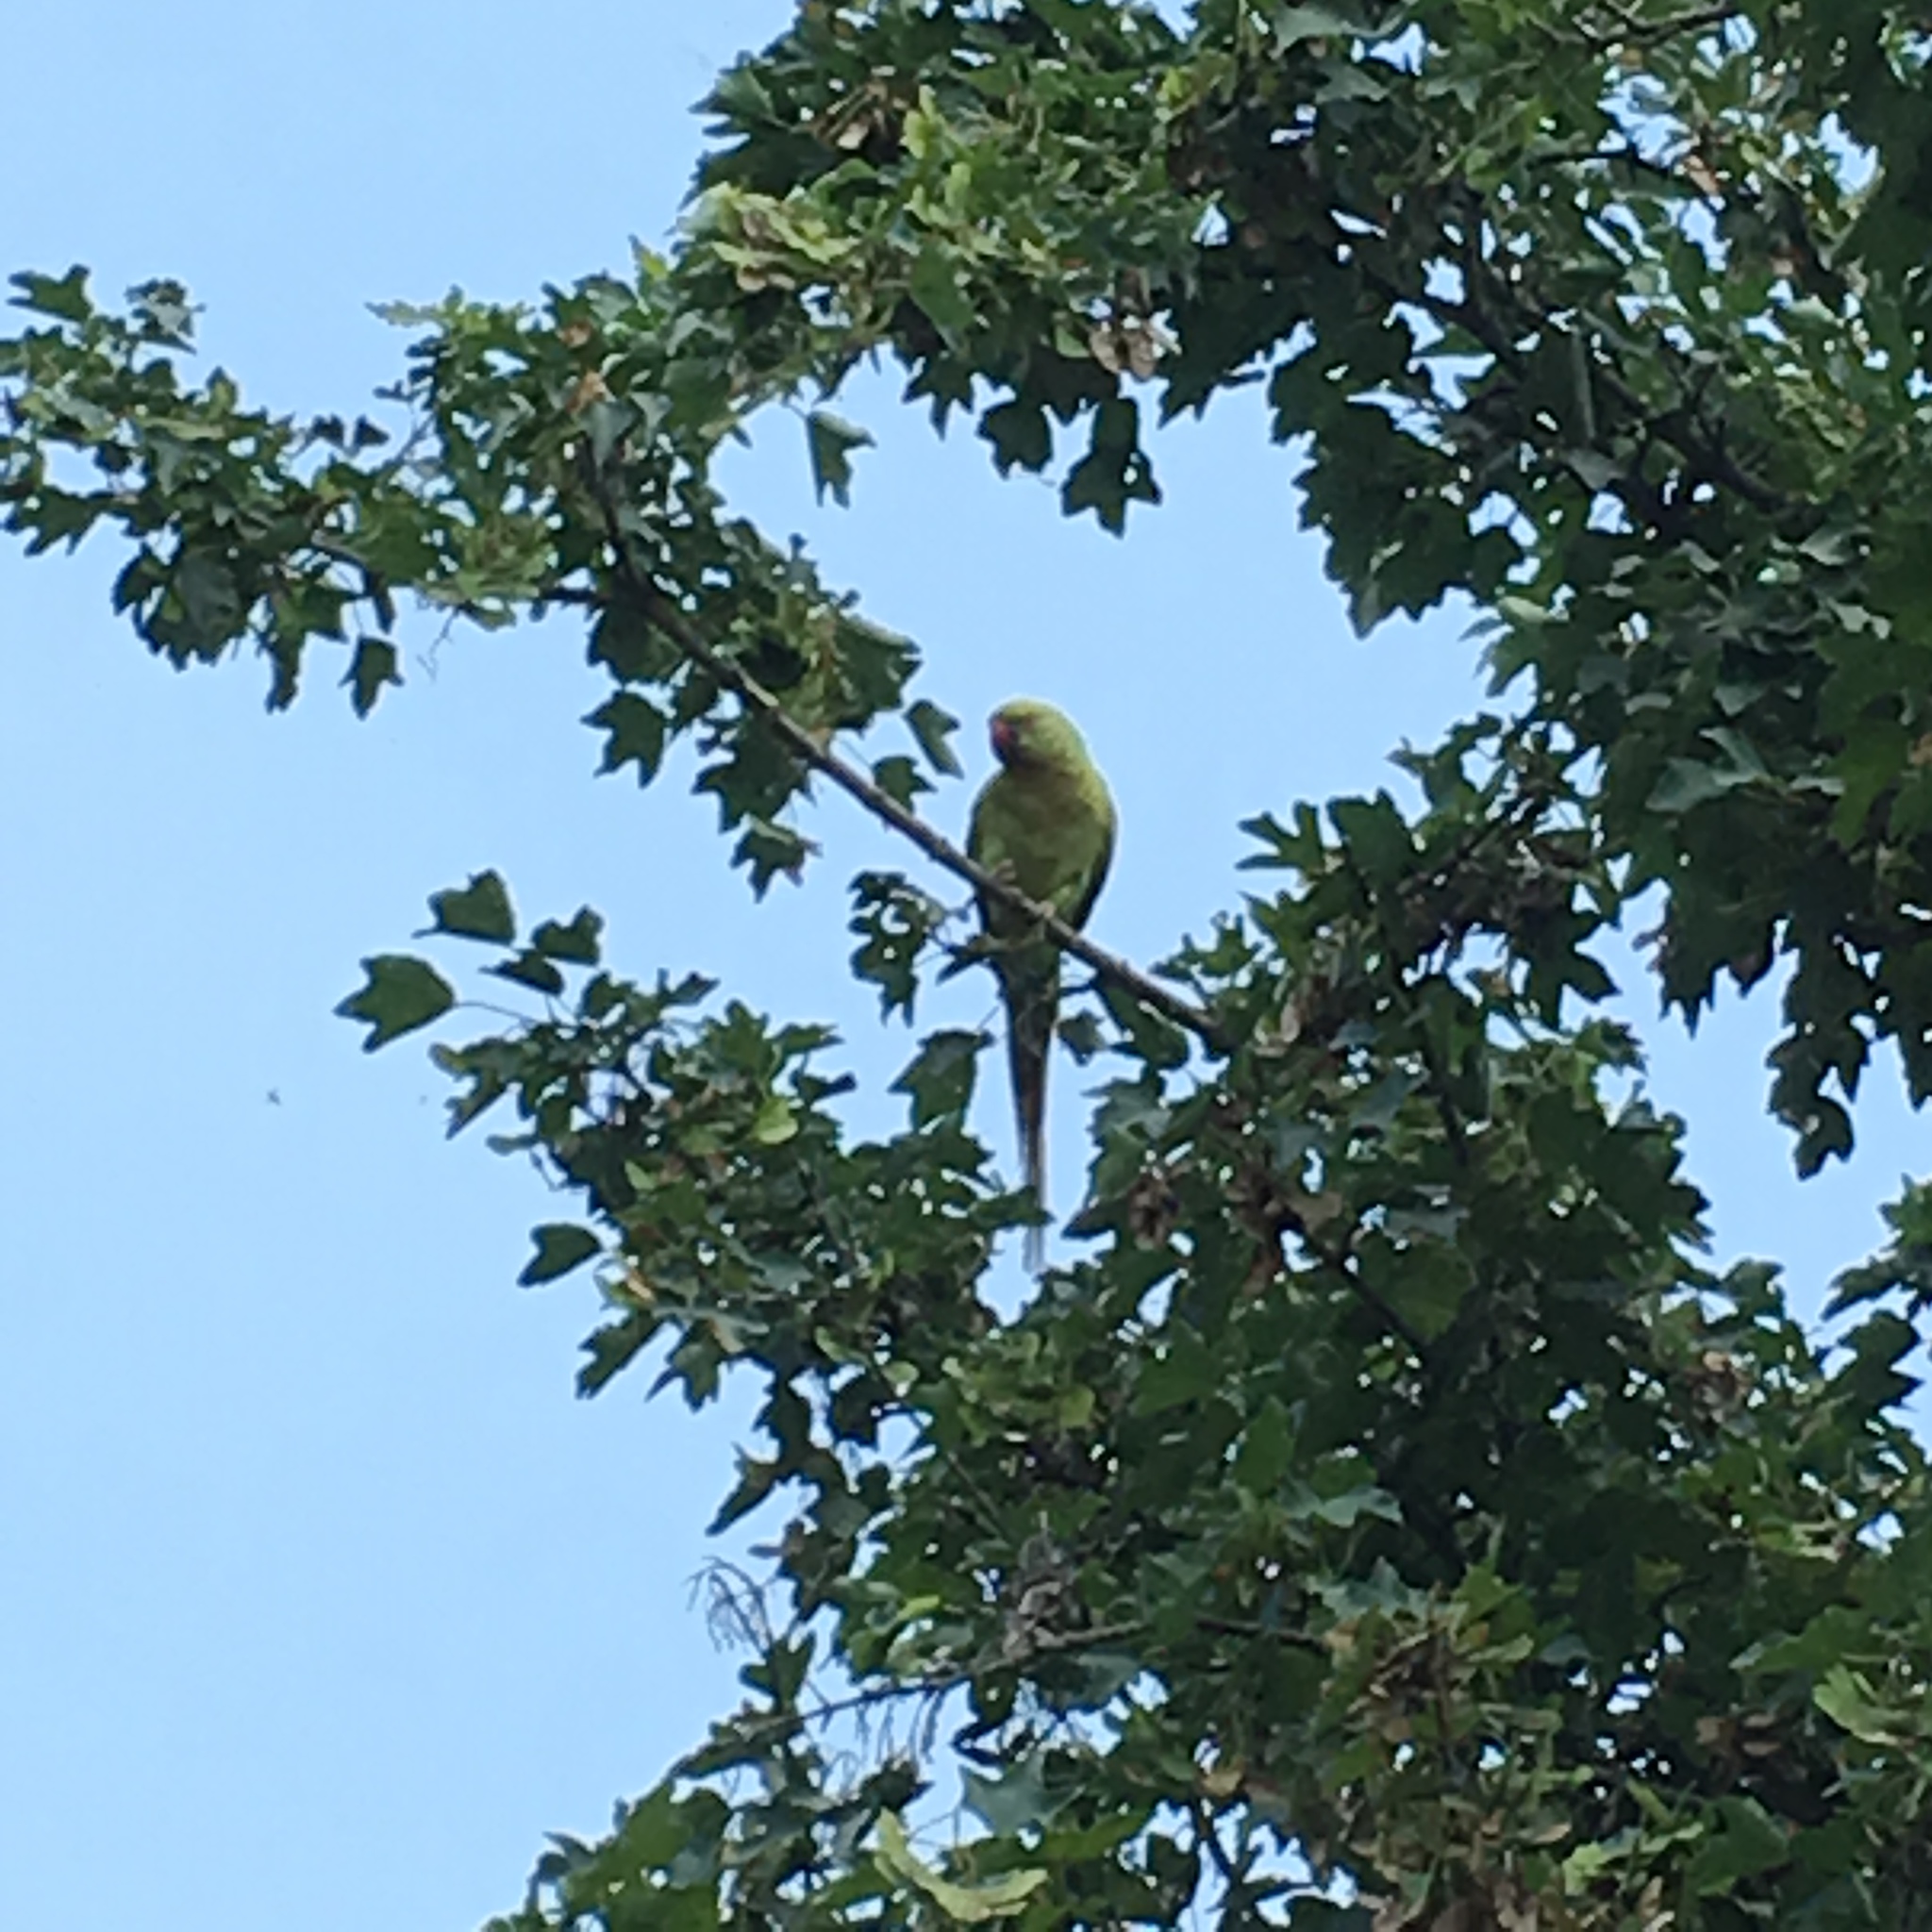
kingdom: Animalia
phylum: Chordata
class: Aves
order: Psittaciformes
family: Psittacidae
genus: Psittacula
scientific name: Psittacula krameri
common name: Rose-ringed parakeet
